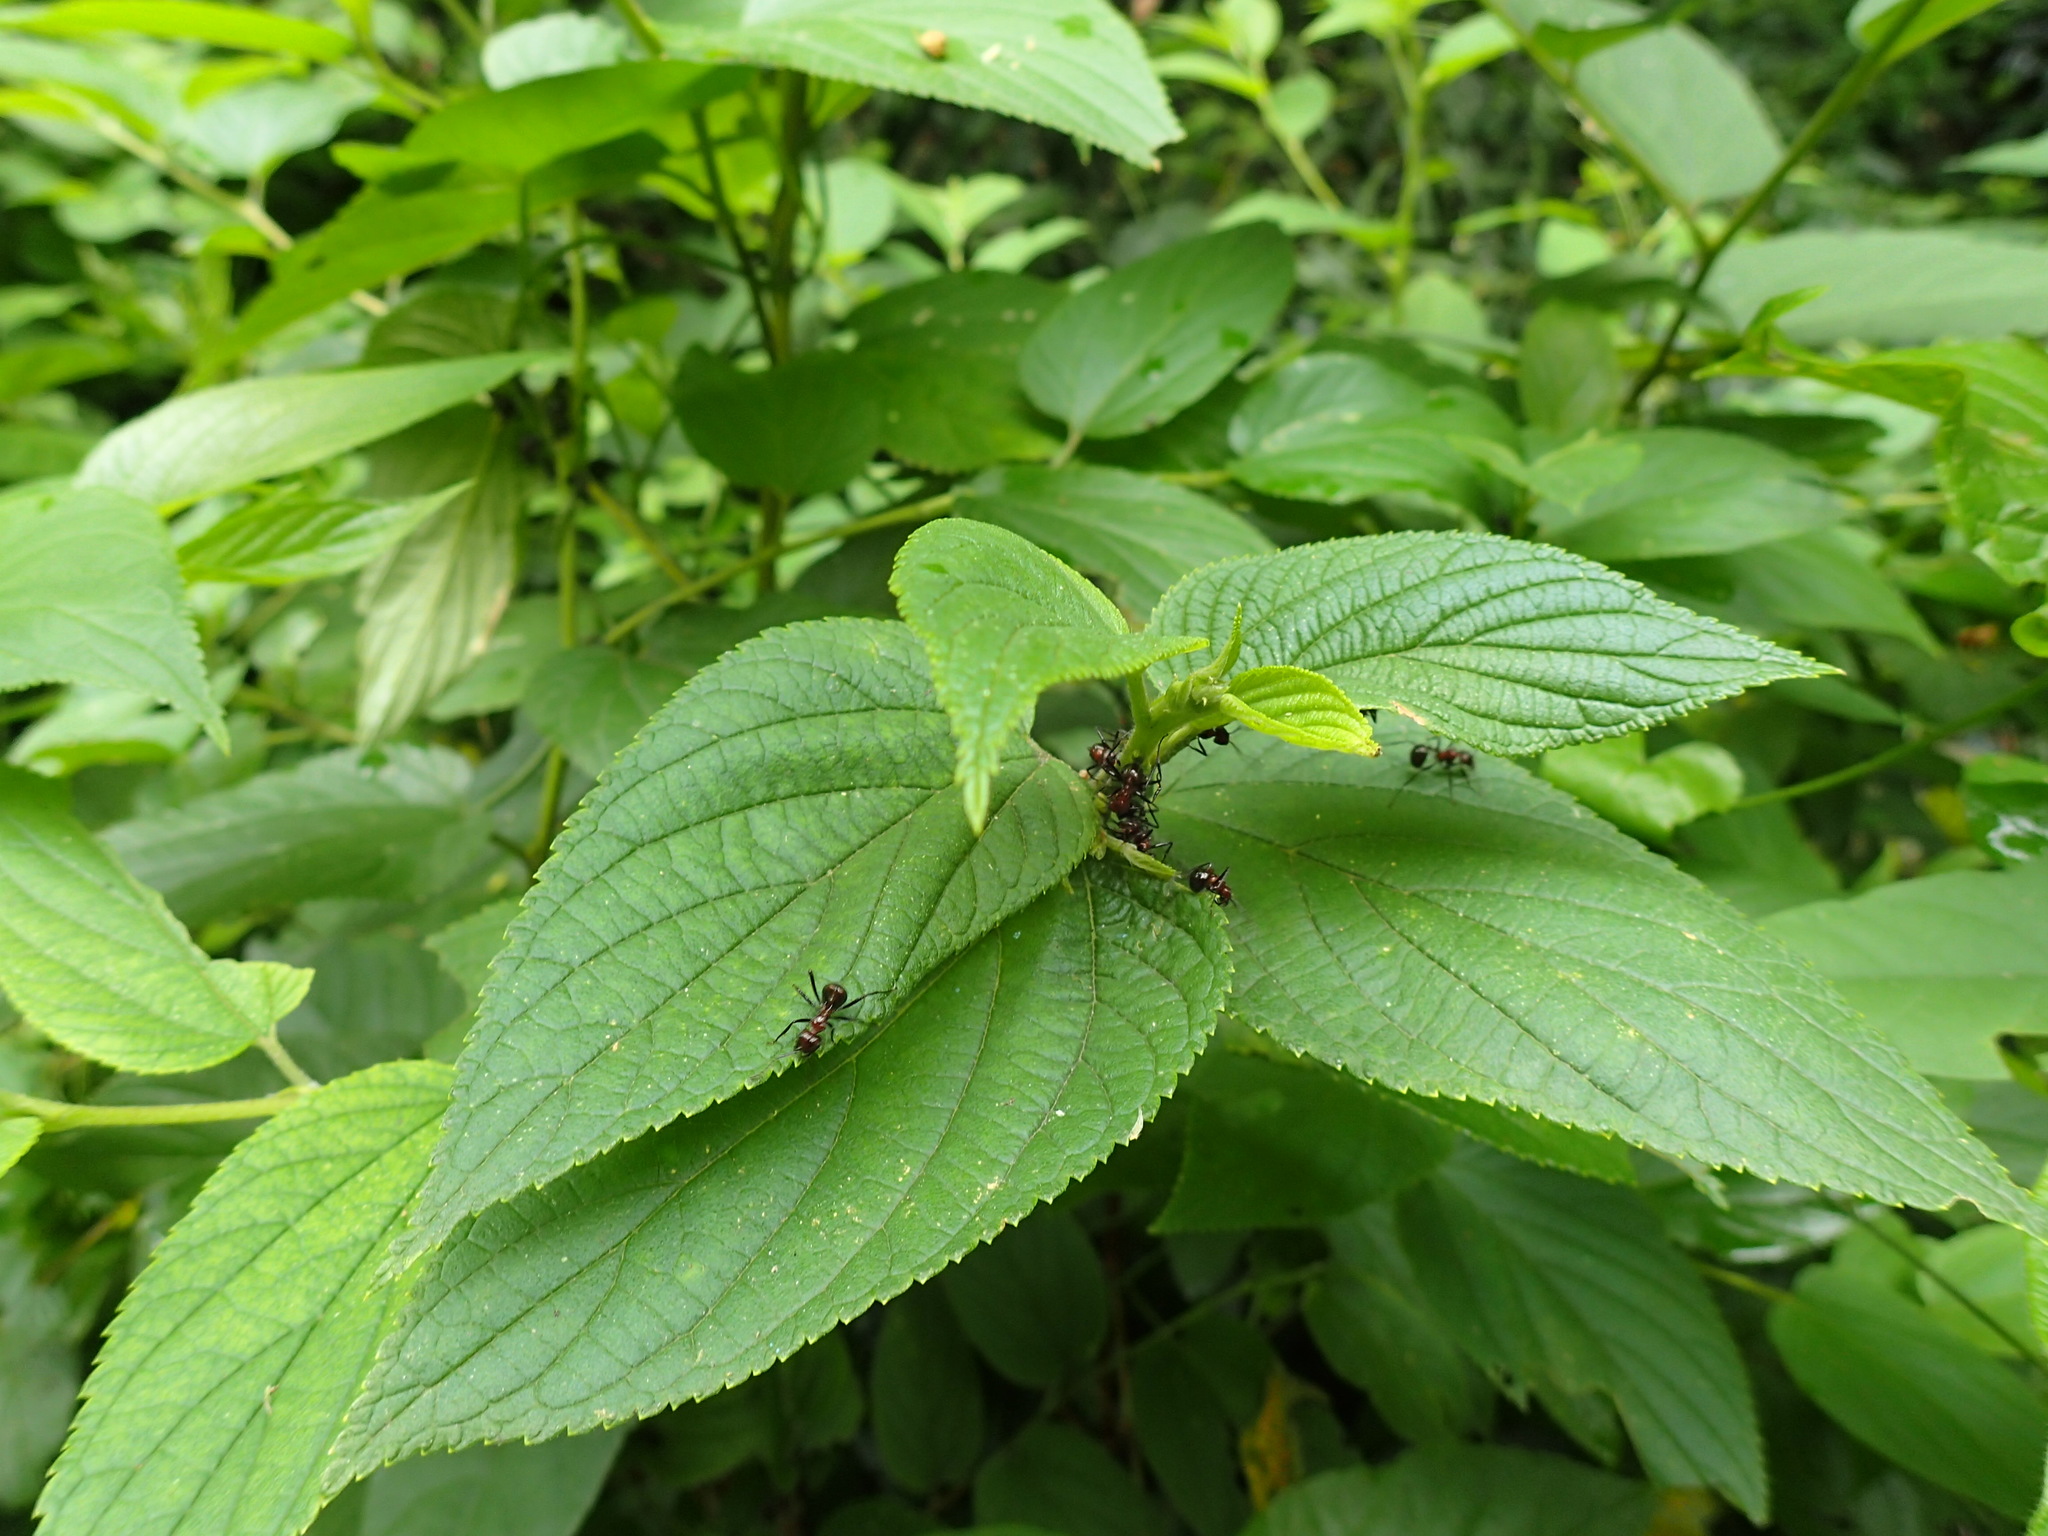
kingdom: Plantae
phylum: Tracheophyta
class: Magnoliopsida
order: Rosales
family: Cannabaceae
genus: Trema
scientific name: Trema orientale
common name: Indian charcoal tree
